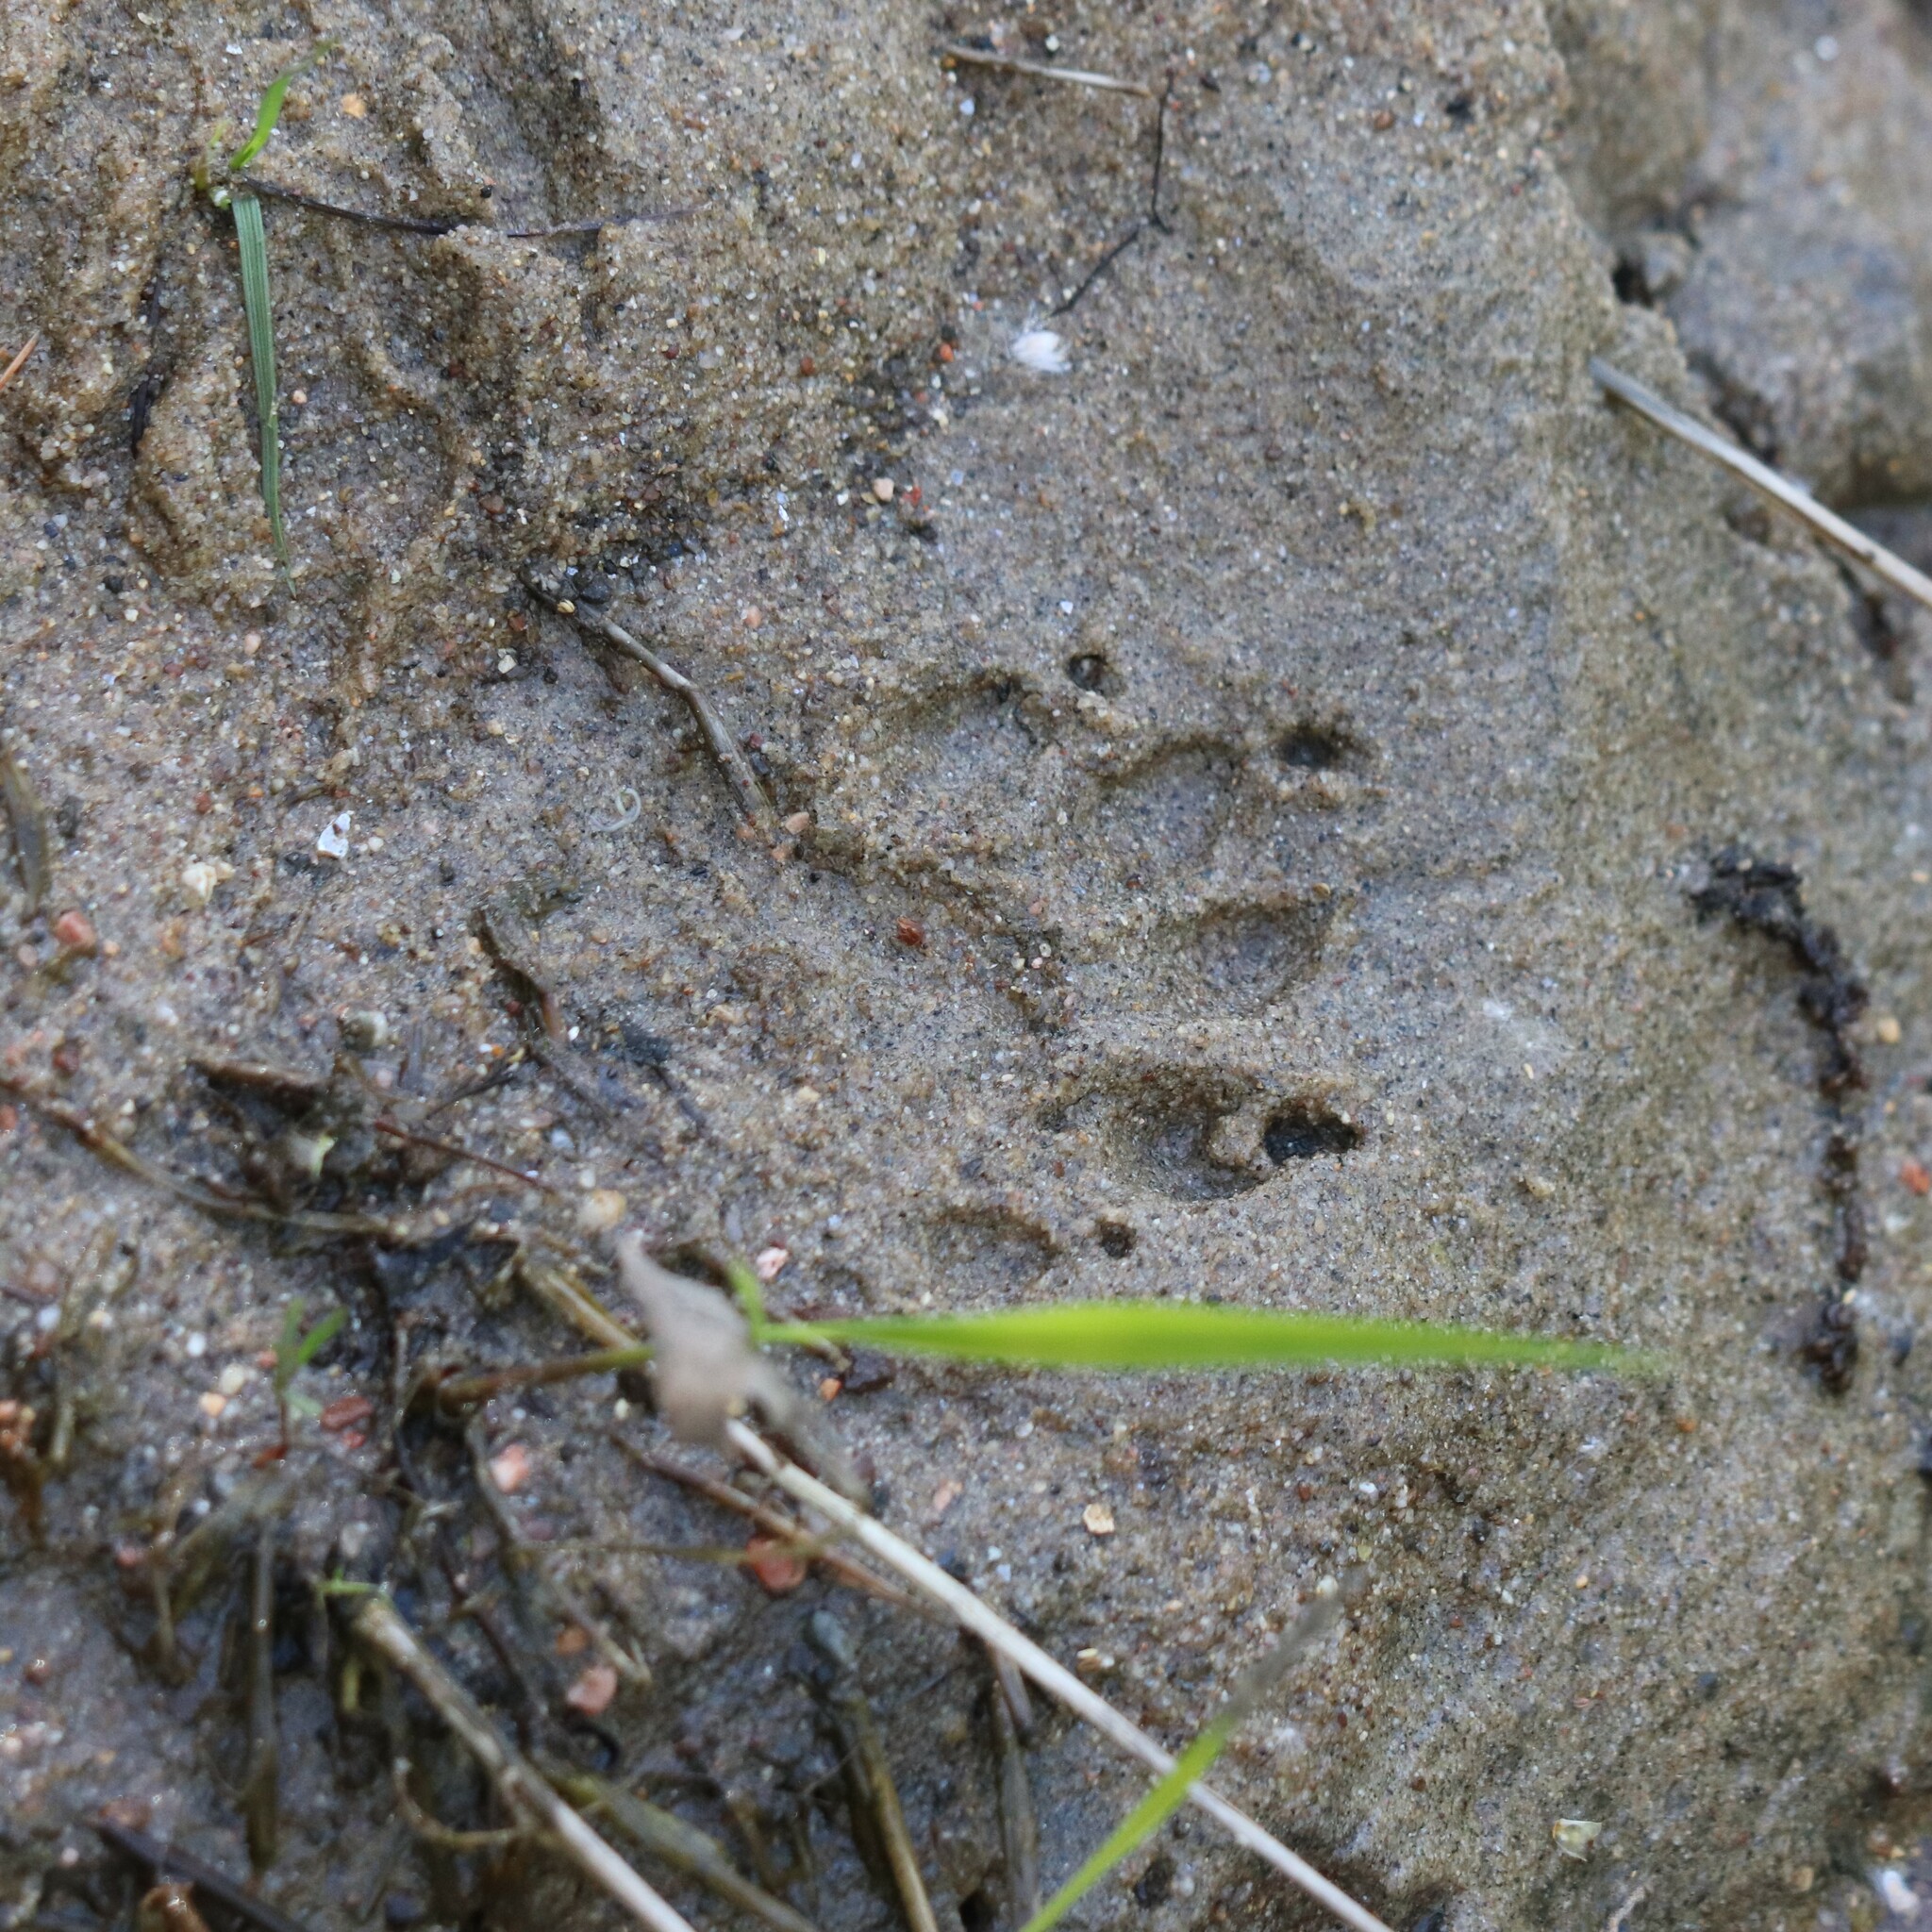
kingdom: Animalia
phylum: Chordata
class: Mammalia
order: Carnivora
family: Procyonidae
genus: Procyon
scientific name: Procyon lotor
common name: Raccoon
